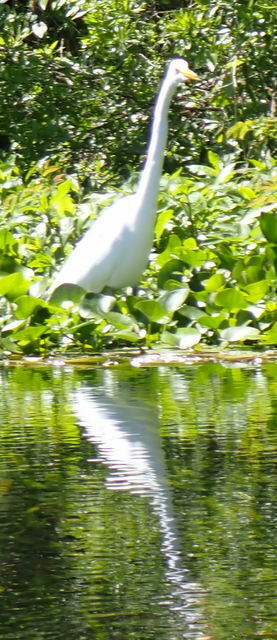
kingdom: Animalia
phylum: Chordata
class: Aves
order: Pelecaniformes
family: Ardeidae
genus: Ardea
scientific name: Ardea alba
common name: Great egret
